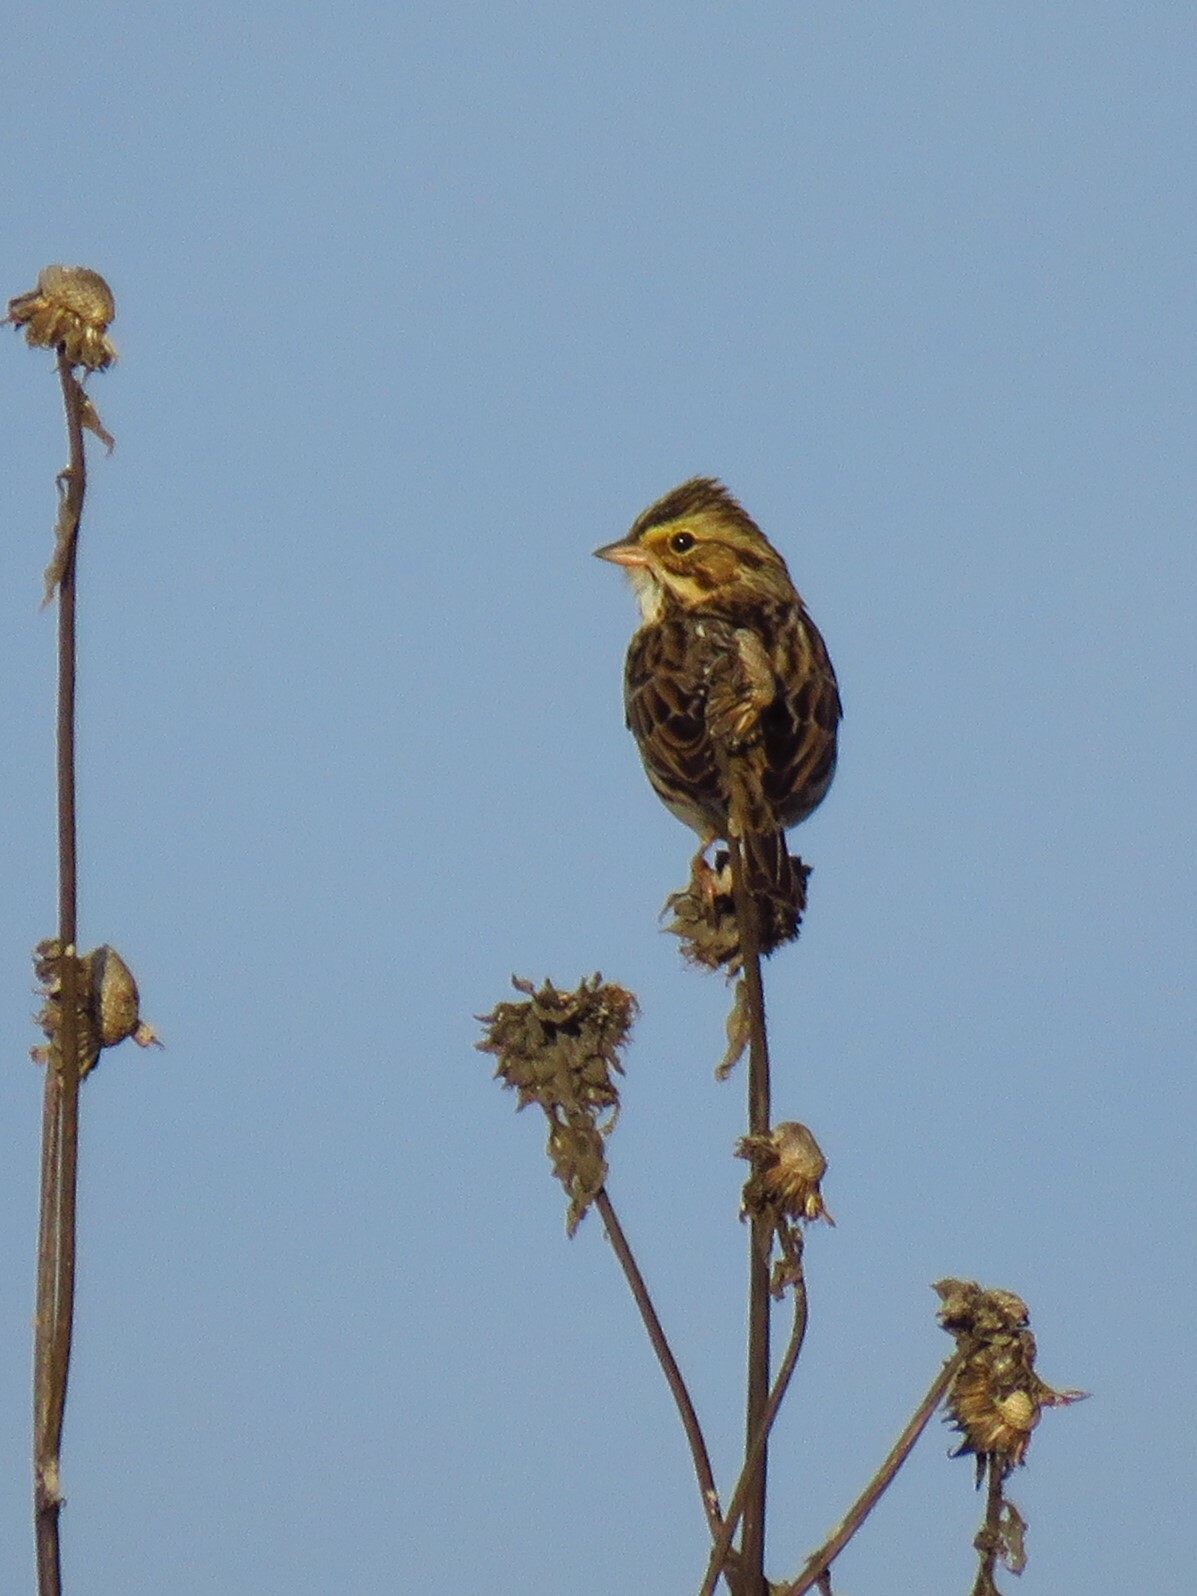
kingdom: Animalia
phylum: Chordata
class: Aves
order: Passeriformes
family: Passerellidae
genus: Passerculus
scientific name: Passerculus sandwichensis
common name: Savannah sparrow
